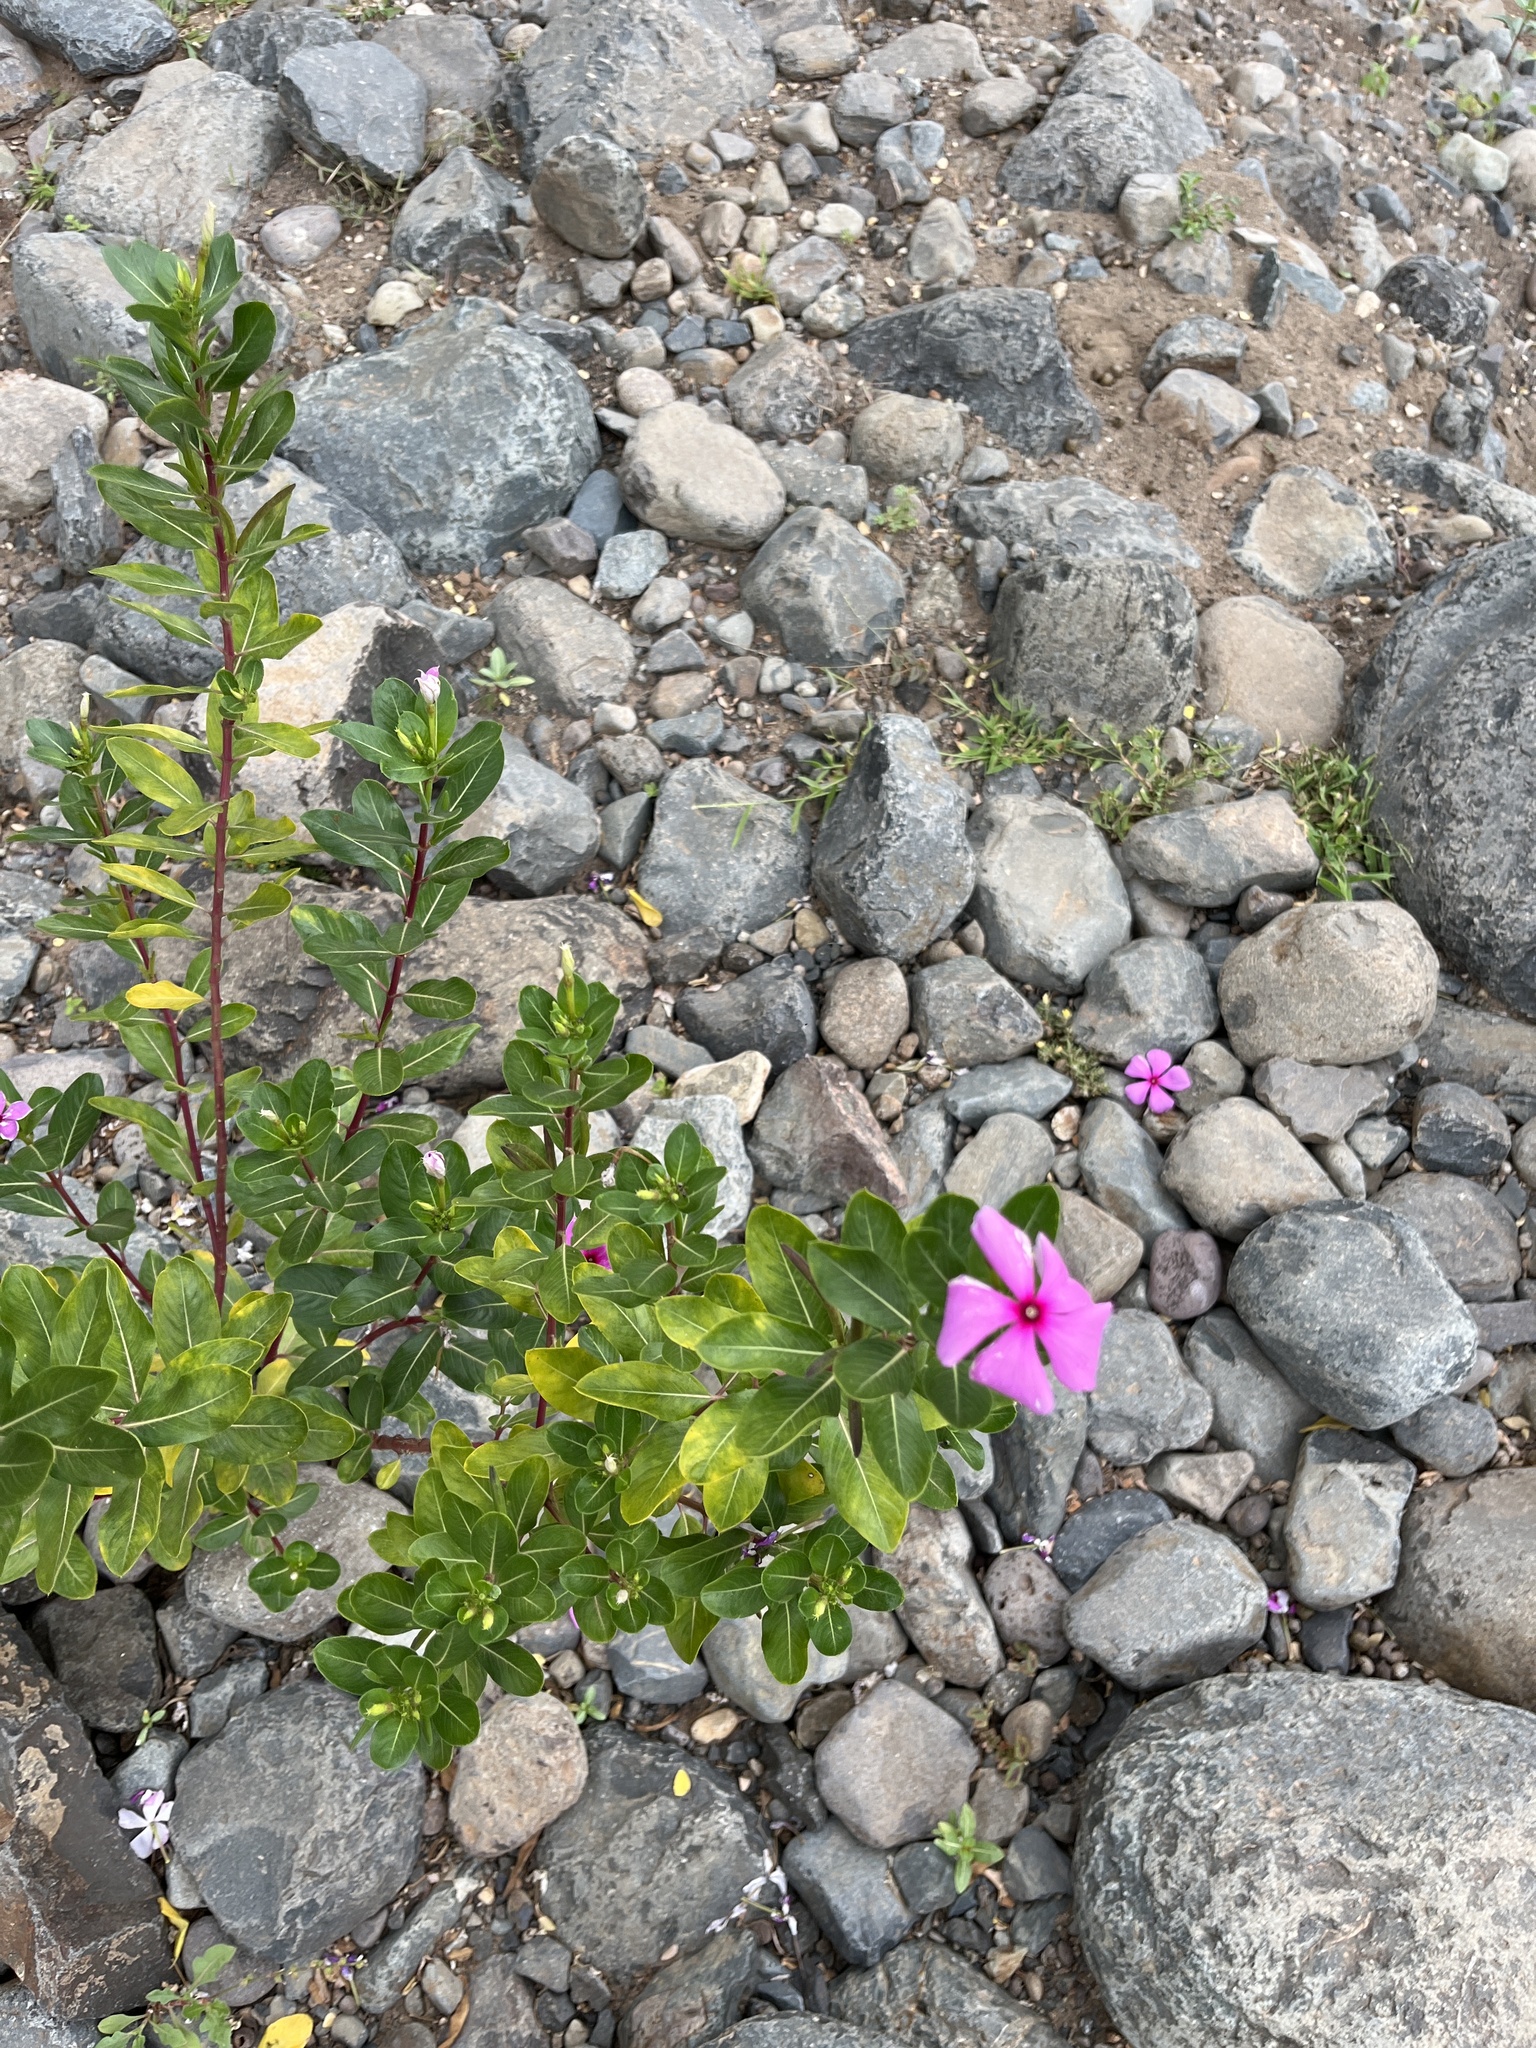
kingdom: Plantae
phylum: Tracheophyta
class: Magnoliopsida
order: Gentianales
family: Apocynaceae
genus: Catharanthus
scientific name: Catharanthus roseus
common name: Madagascar periwinkle
